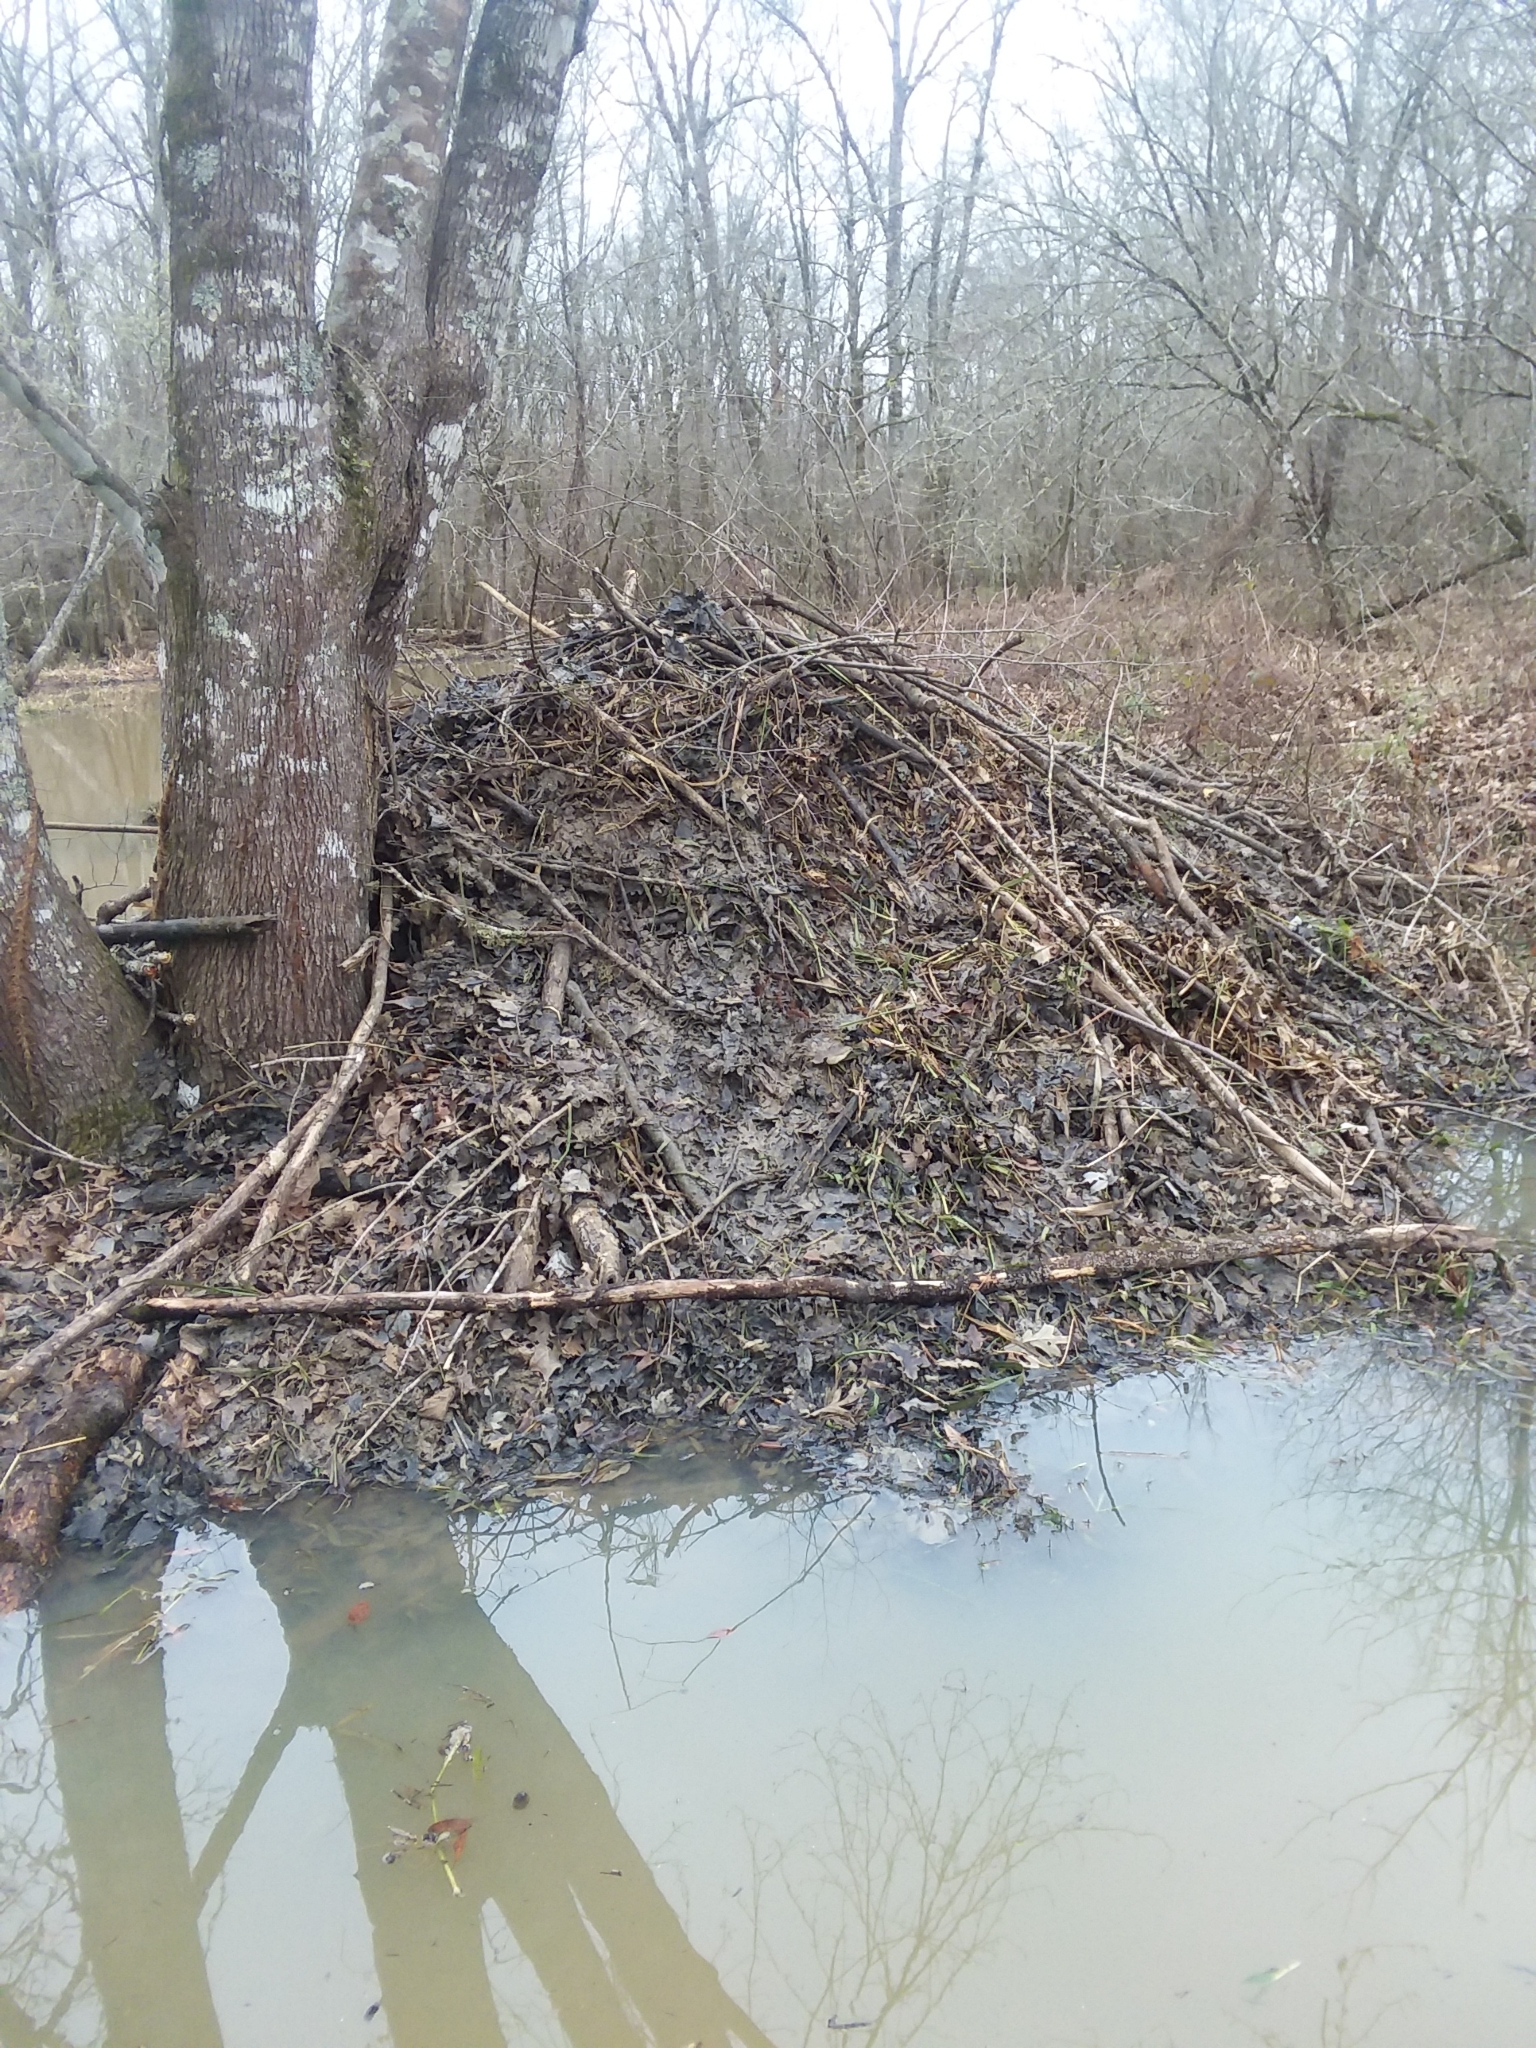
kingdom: Animalia
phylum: Chordata
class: Mammalia
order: Rodentia
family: Castoridae
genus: Castor
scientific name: Castor canadensis
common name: American beaver
